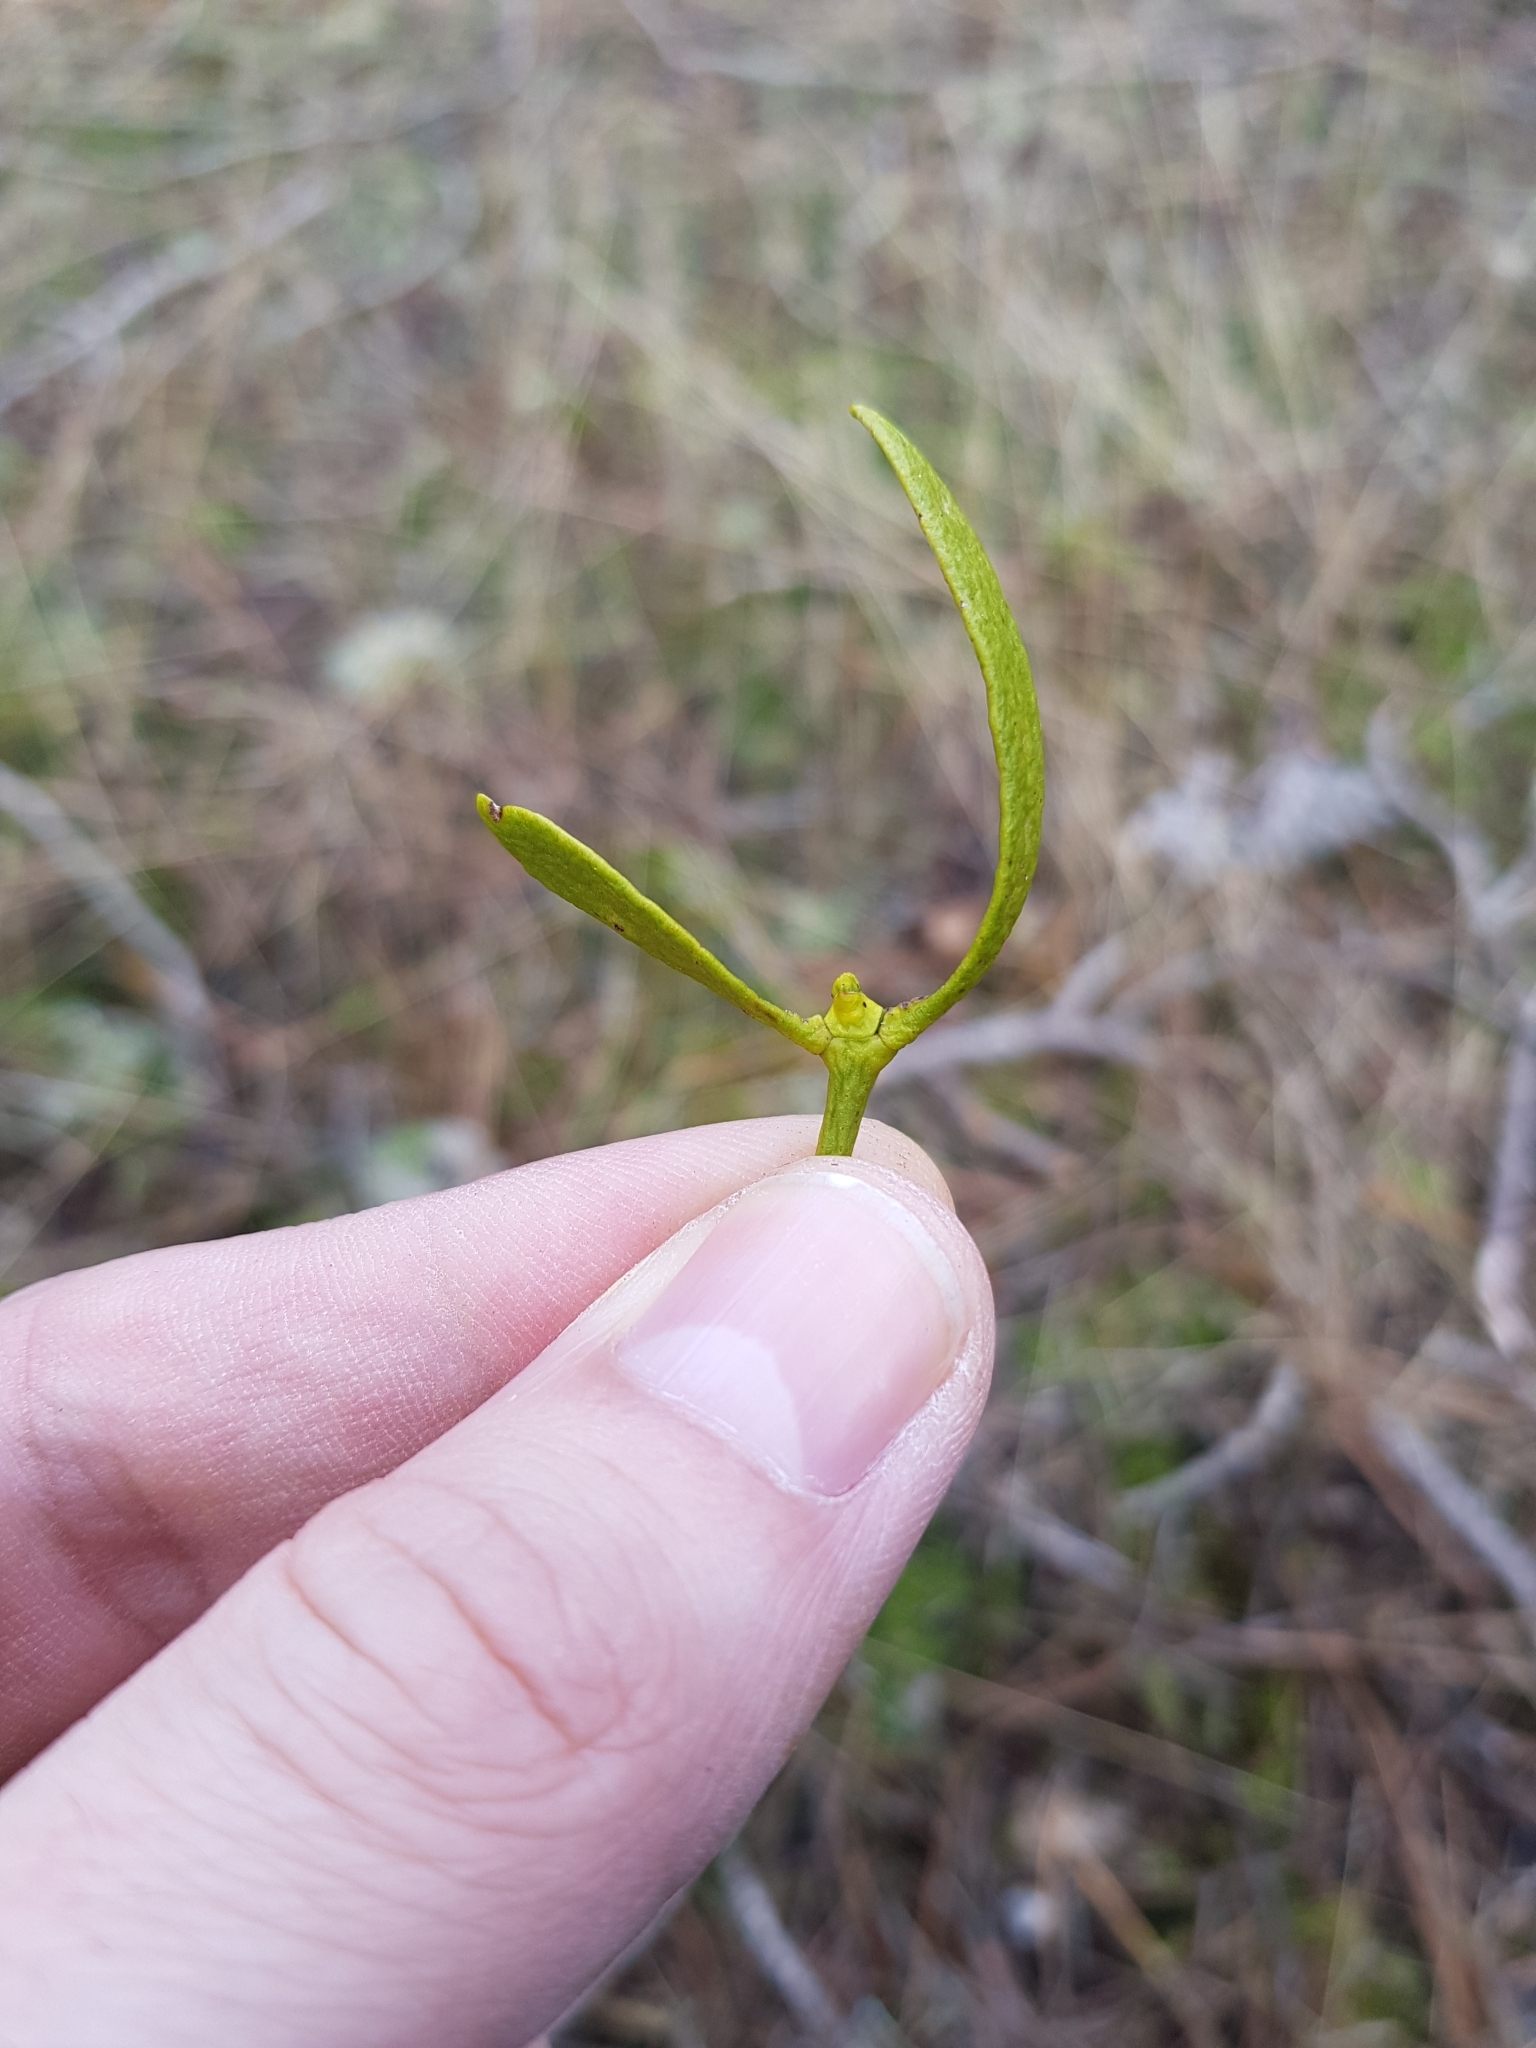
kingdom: Plantae
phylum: Tracheophyta
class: Magnoliopsida
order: Santalales
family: Viscaceae
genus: Viscum
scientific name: Viscum album
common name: Mistletoe
